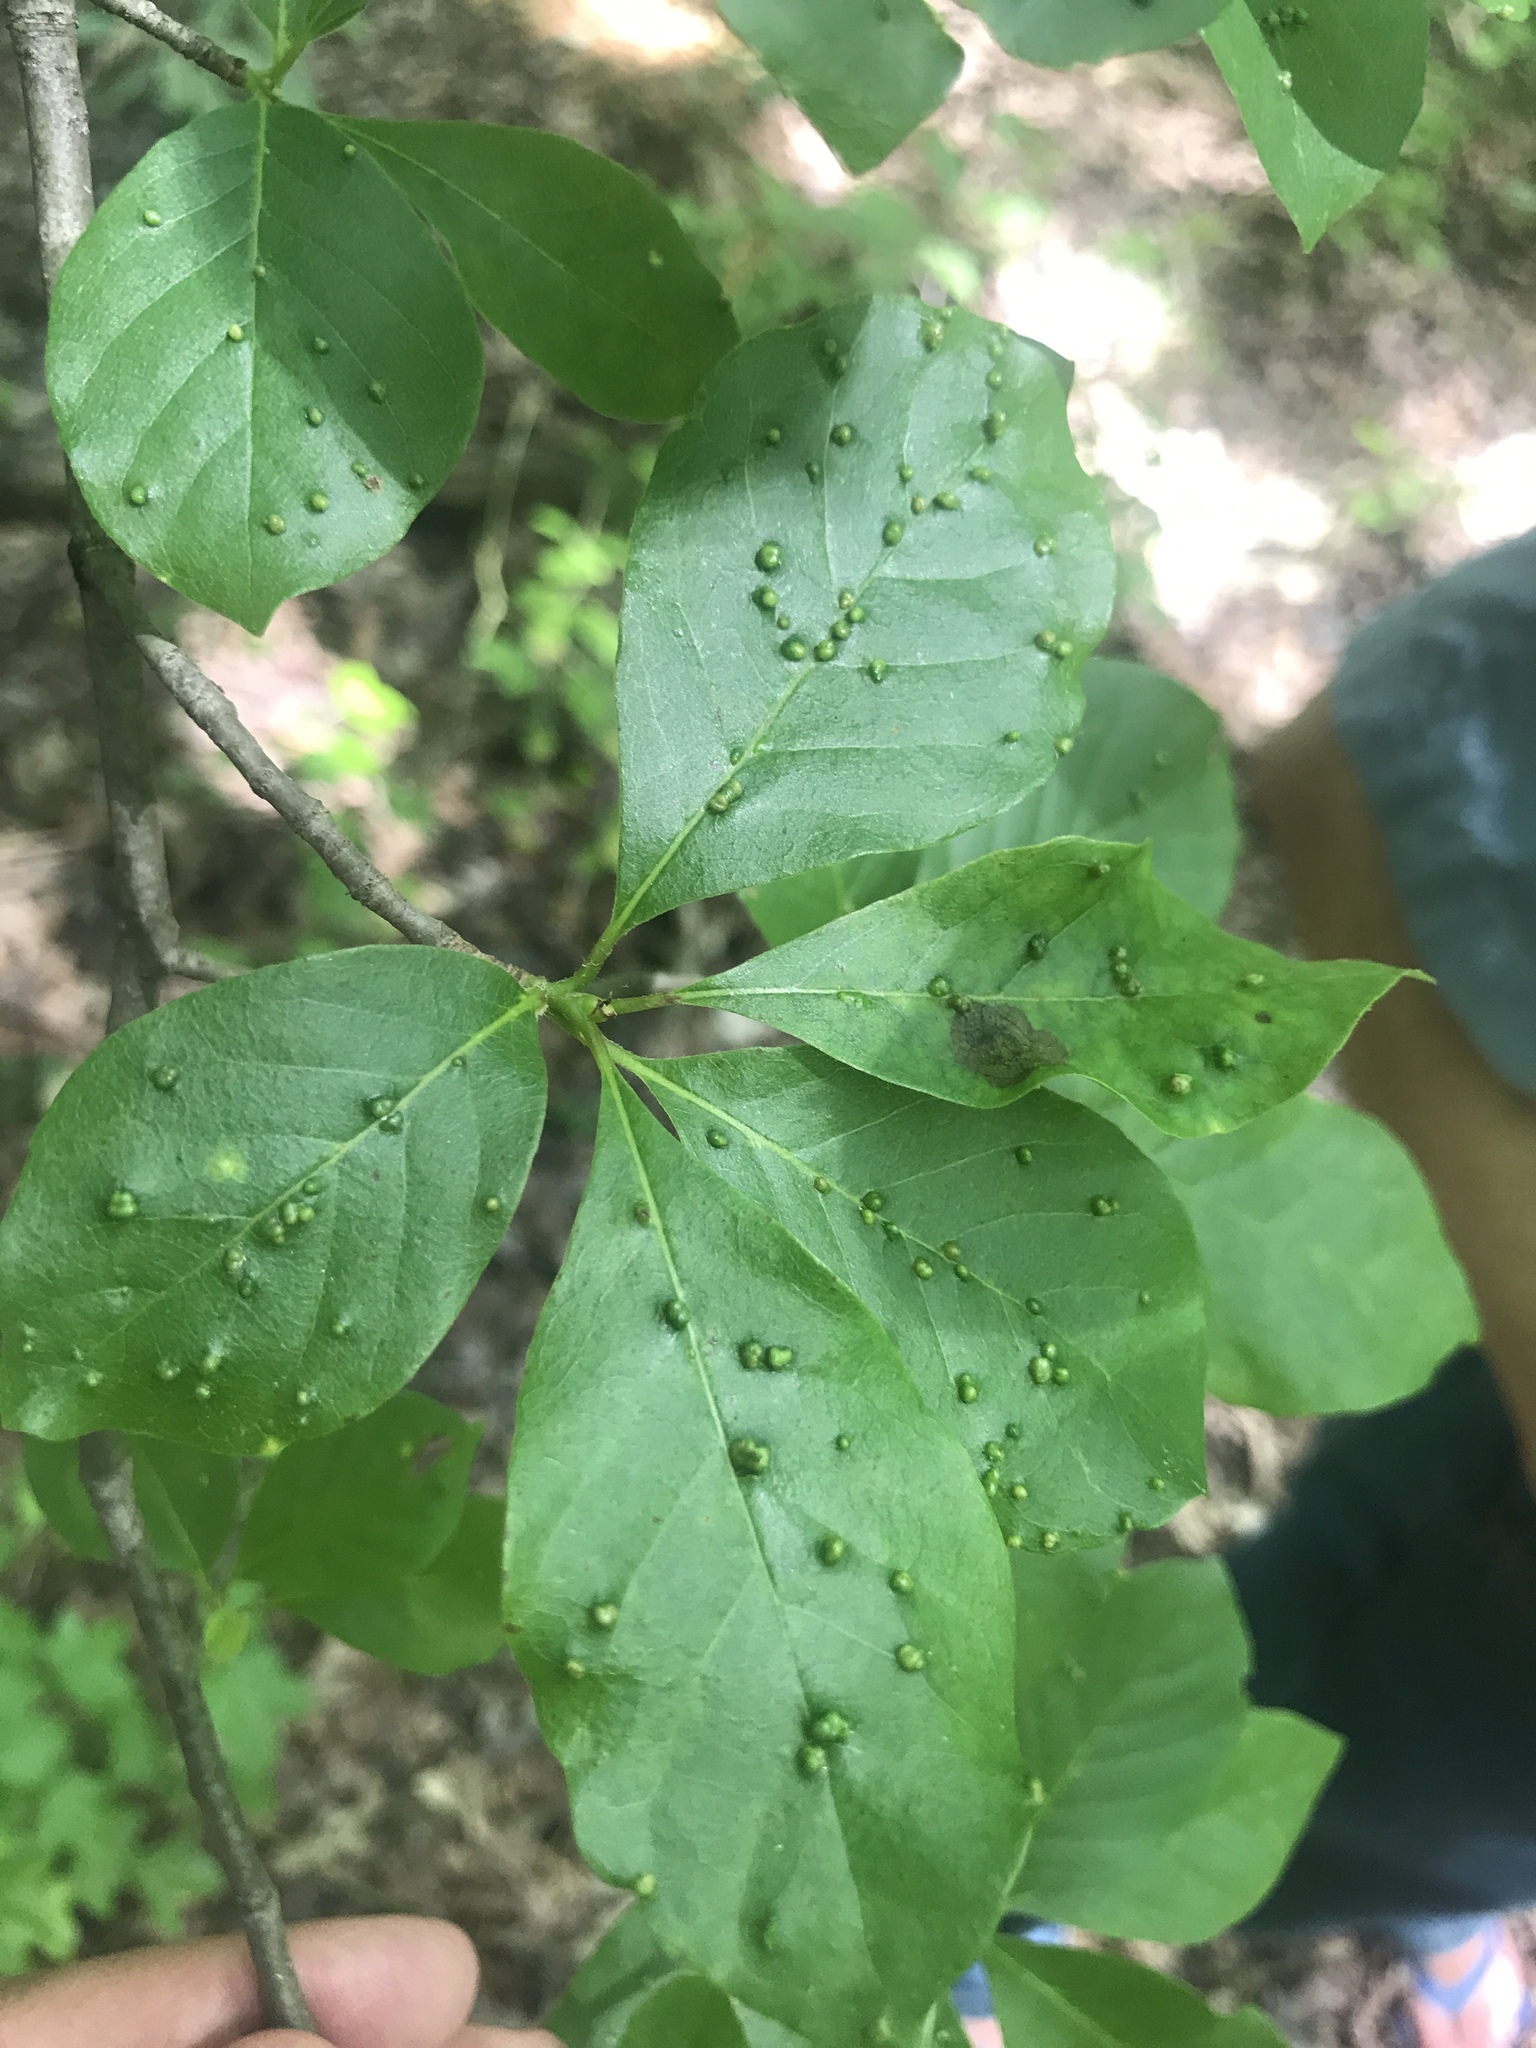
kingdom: Animalia
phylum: Arthropoda
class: Arachnida
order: Trombidiformes
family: Eriophyidae
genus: Aceria
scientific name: Aceria
